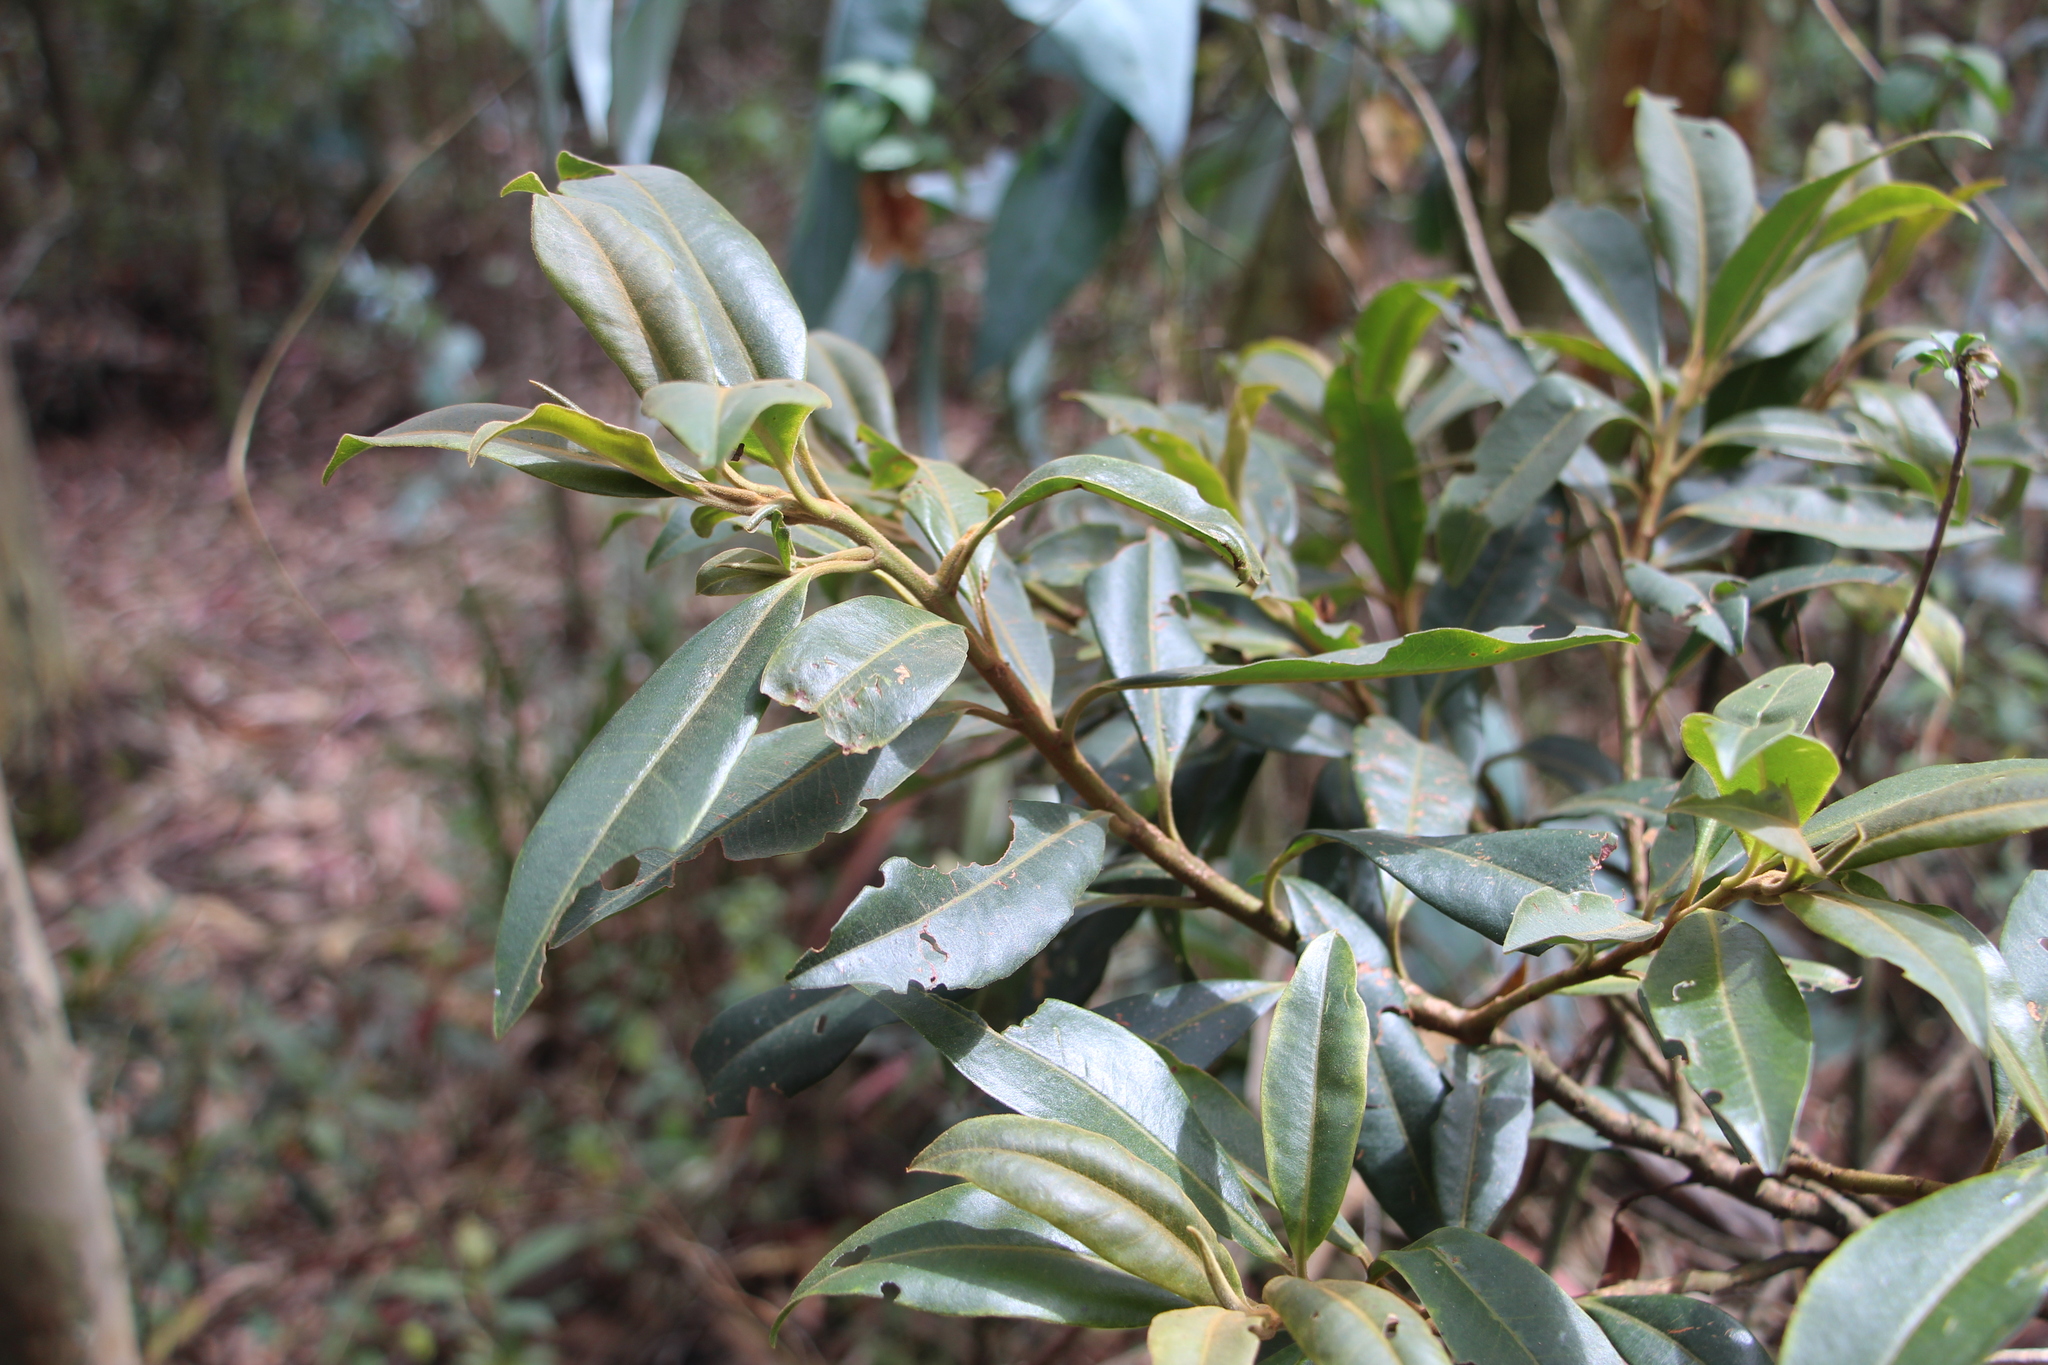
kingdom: Plantae
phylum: Tracheophyta
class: Magnoliopsida
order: Ericales
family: Primulaceae
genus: Myrsine
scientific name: Myrsine coriacea
